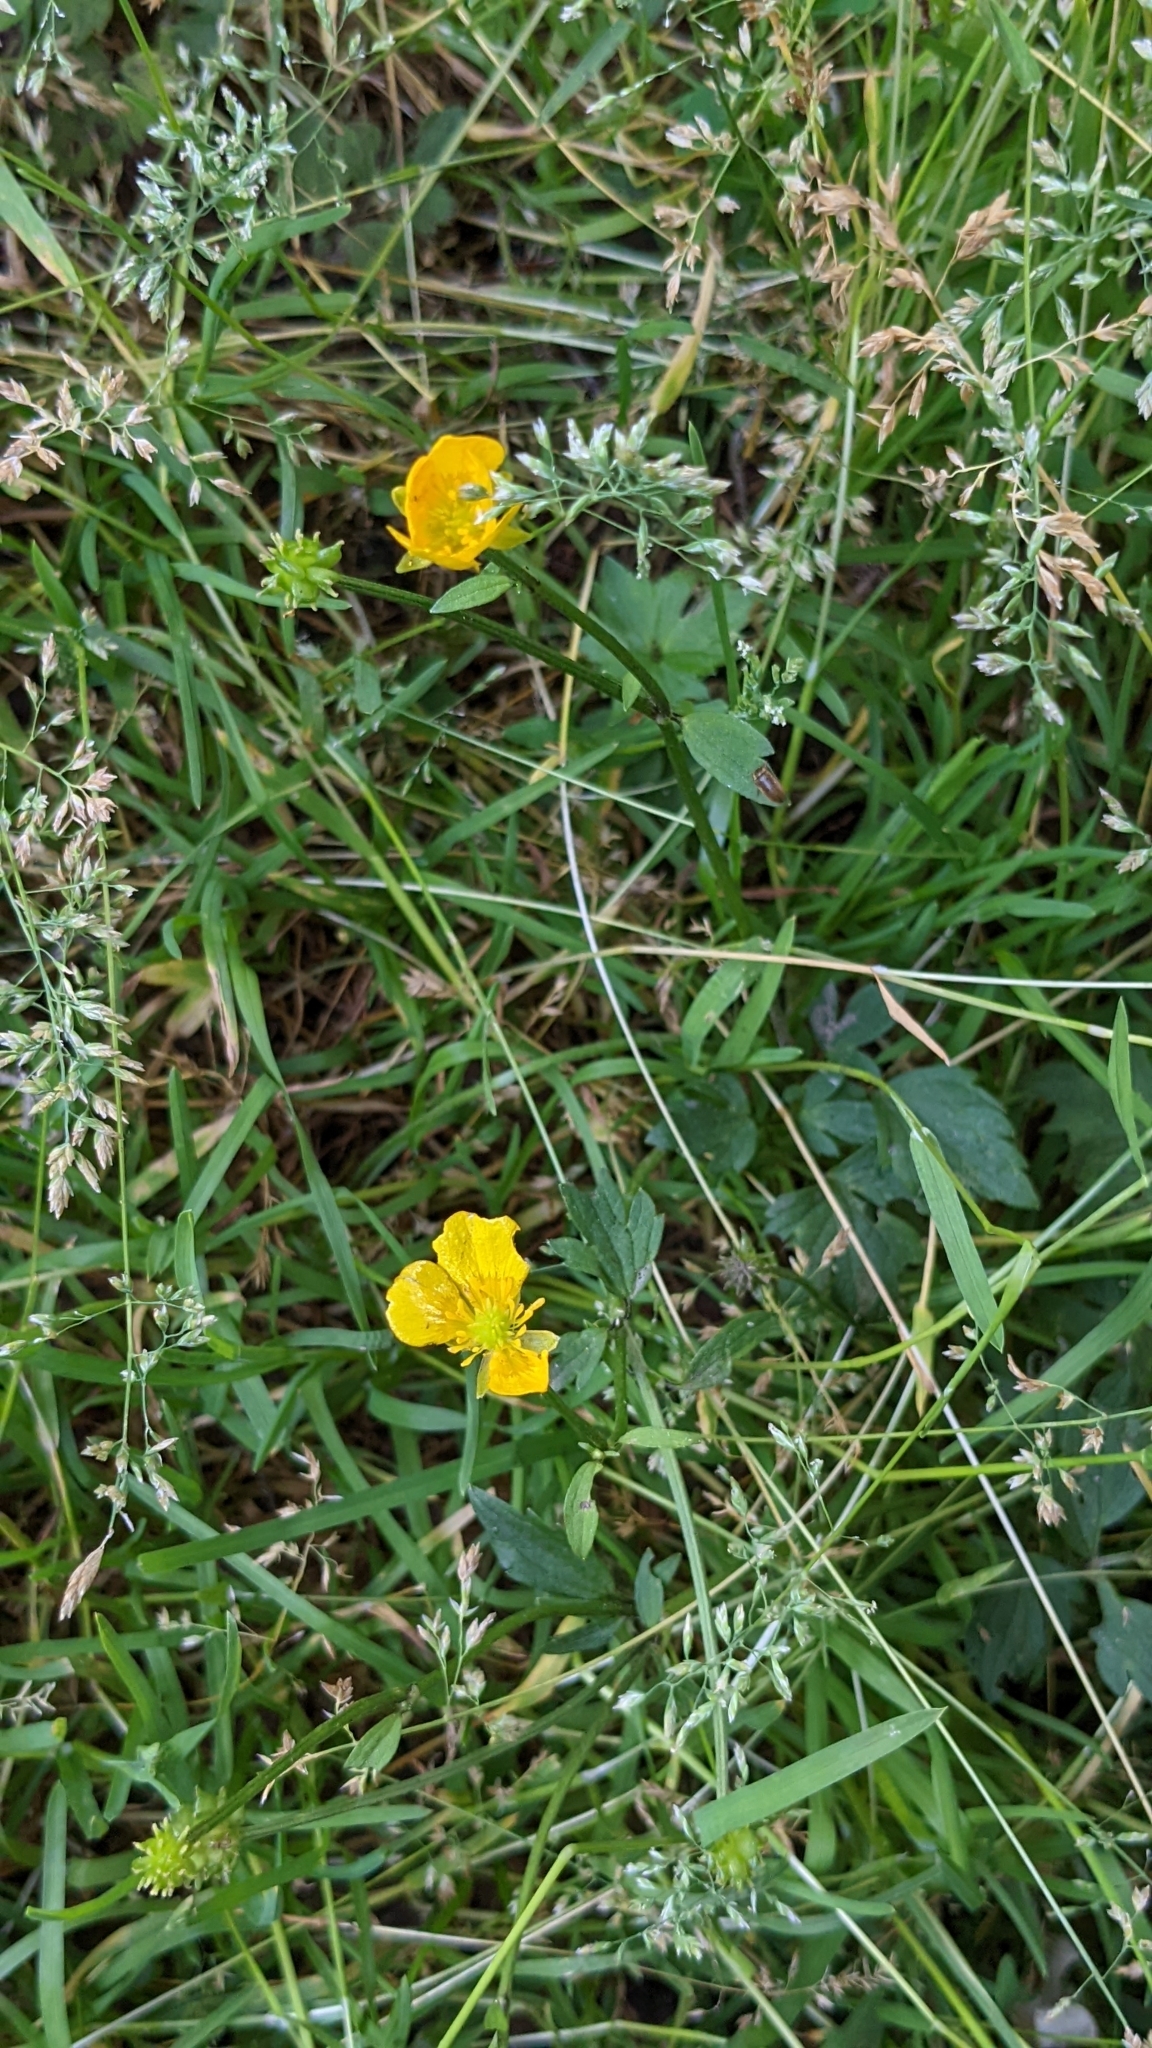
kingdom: Plantae
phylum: Tracheophyta
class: Magnoliopsida
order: Ranunculales
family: Ranunculaceae
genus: Ranunculus
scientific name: Ranunculus repens
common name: Creeping buttercup
